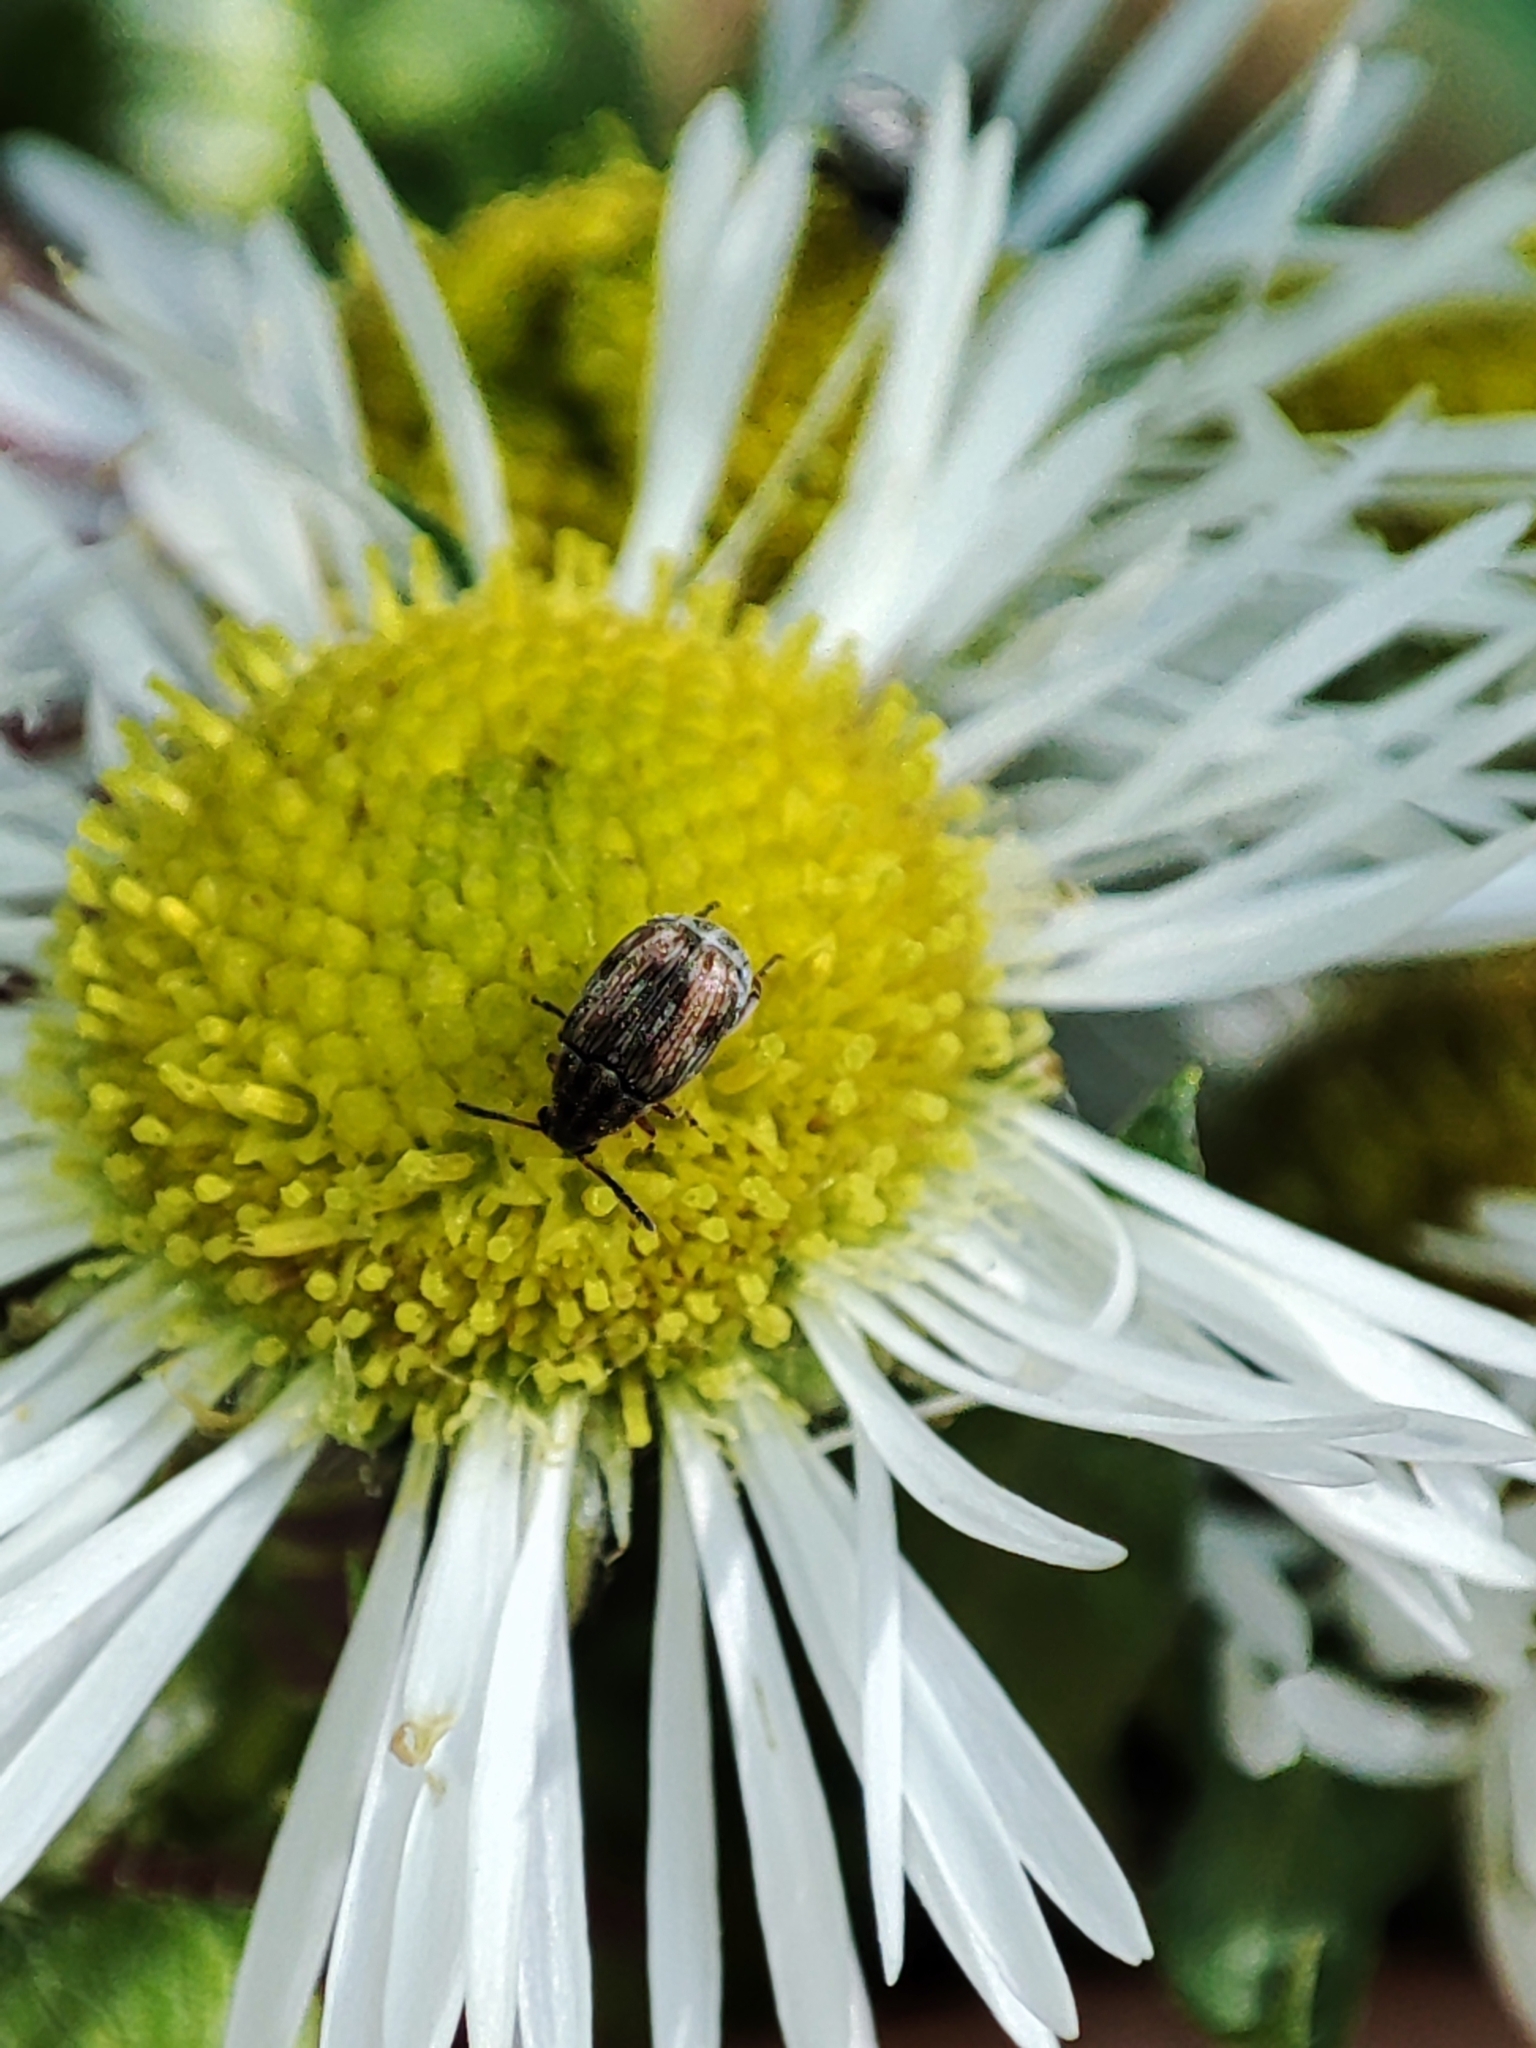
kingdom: Animalia
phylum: Arthropoda
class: Insecta
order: Coleoptera
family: Chrysomelidae
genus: Dactylispa
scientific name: Dactylispa pallidipennis
